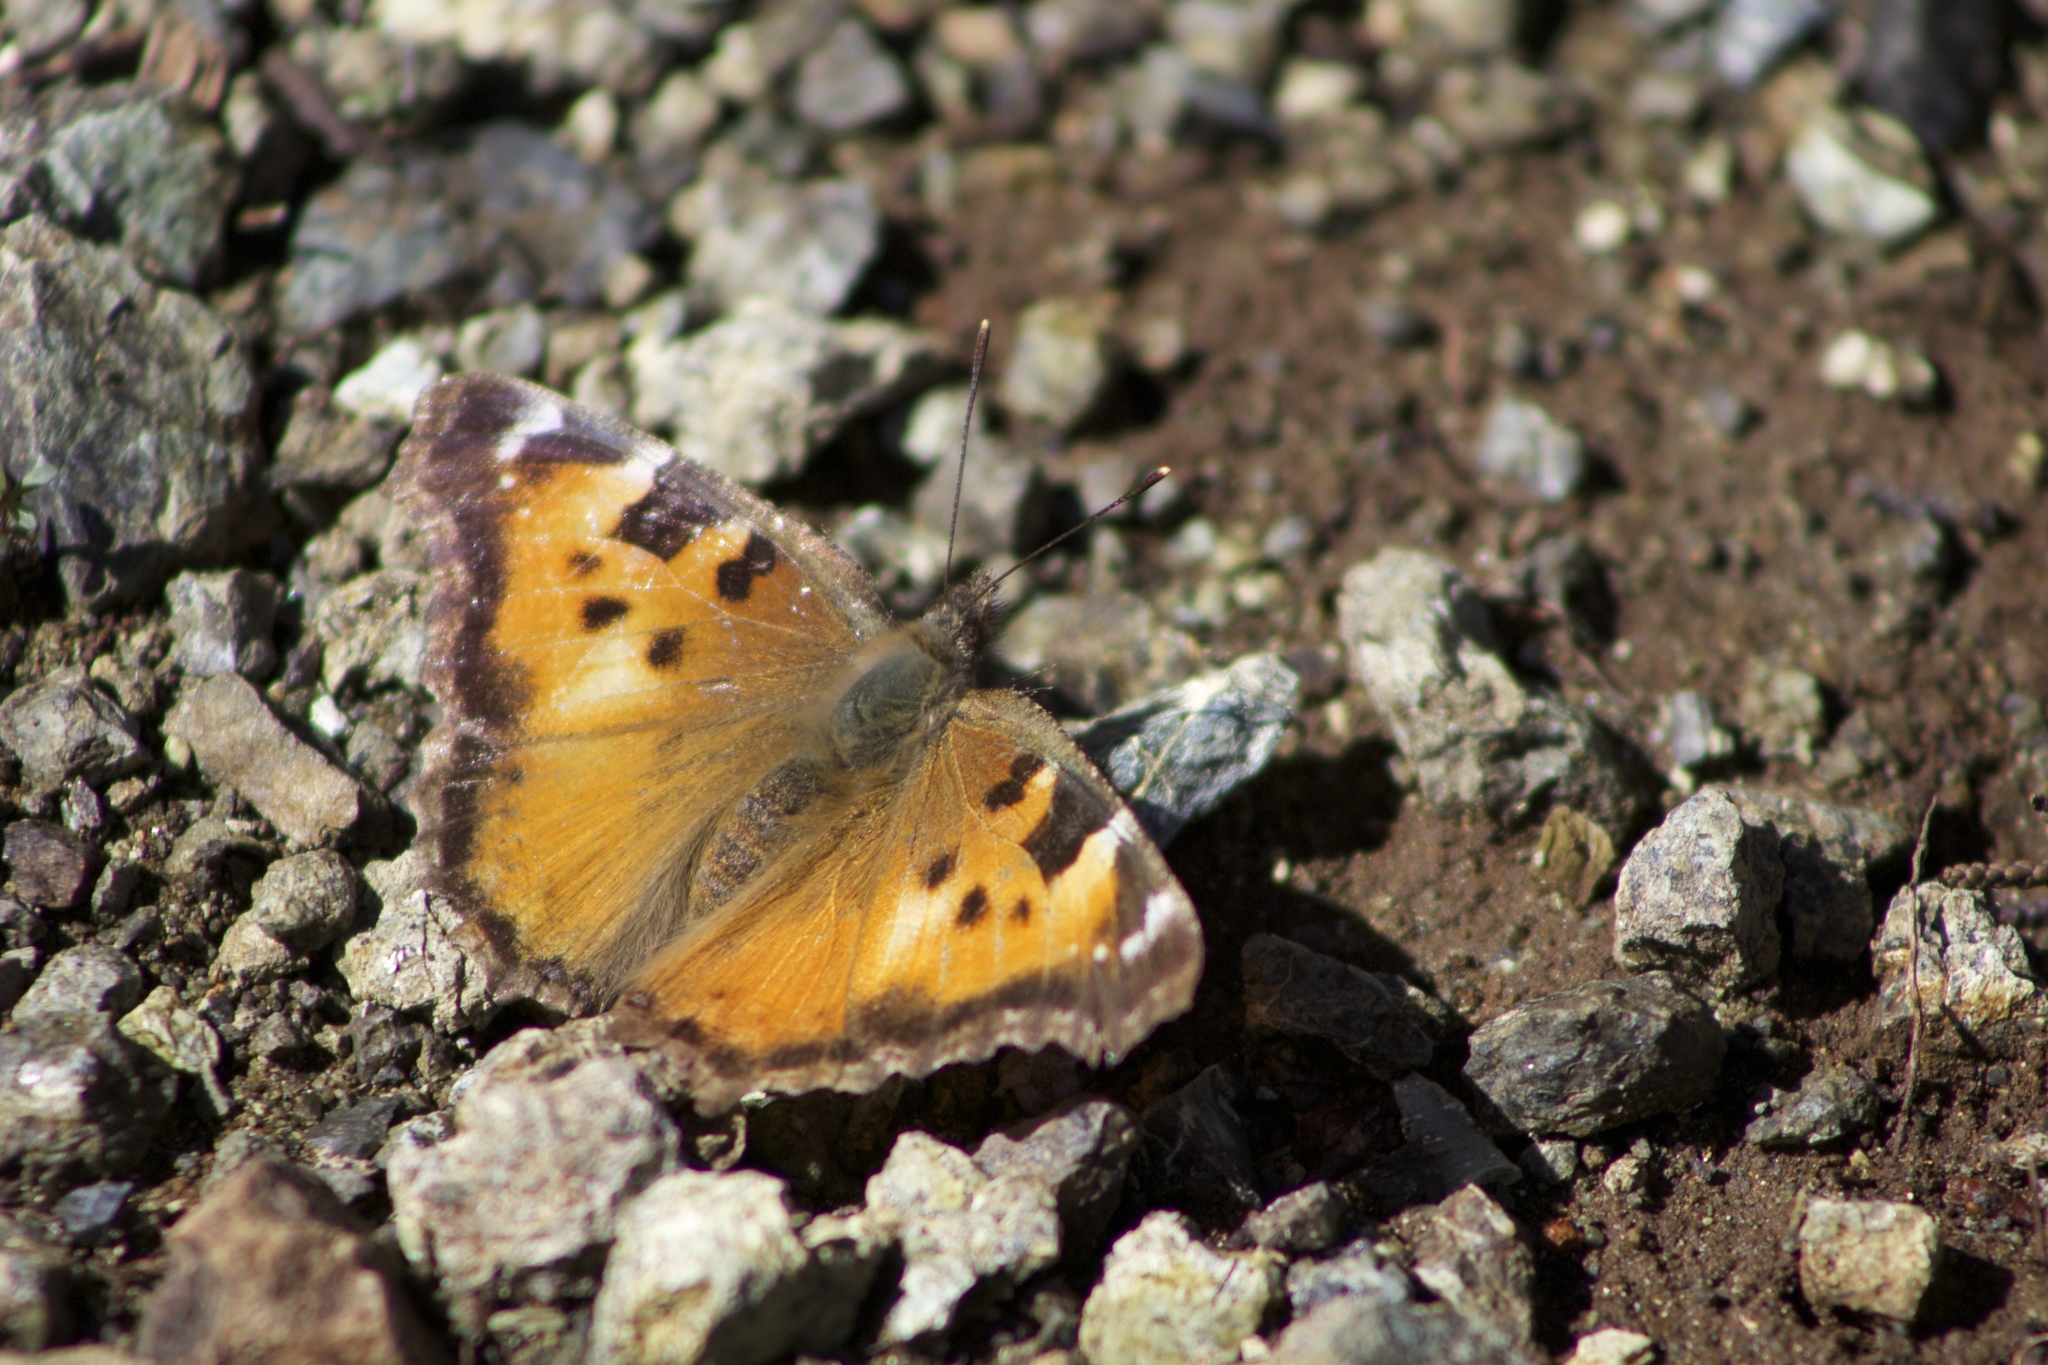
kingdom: Animalia
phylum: Arthropoda
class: Insecta
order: Lepidoptera
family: Nymphalidae
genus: Nymphalis
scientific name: Nymphalis californica
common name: California tortoiseshell
